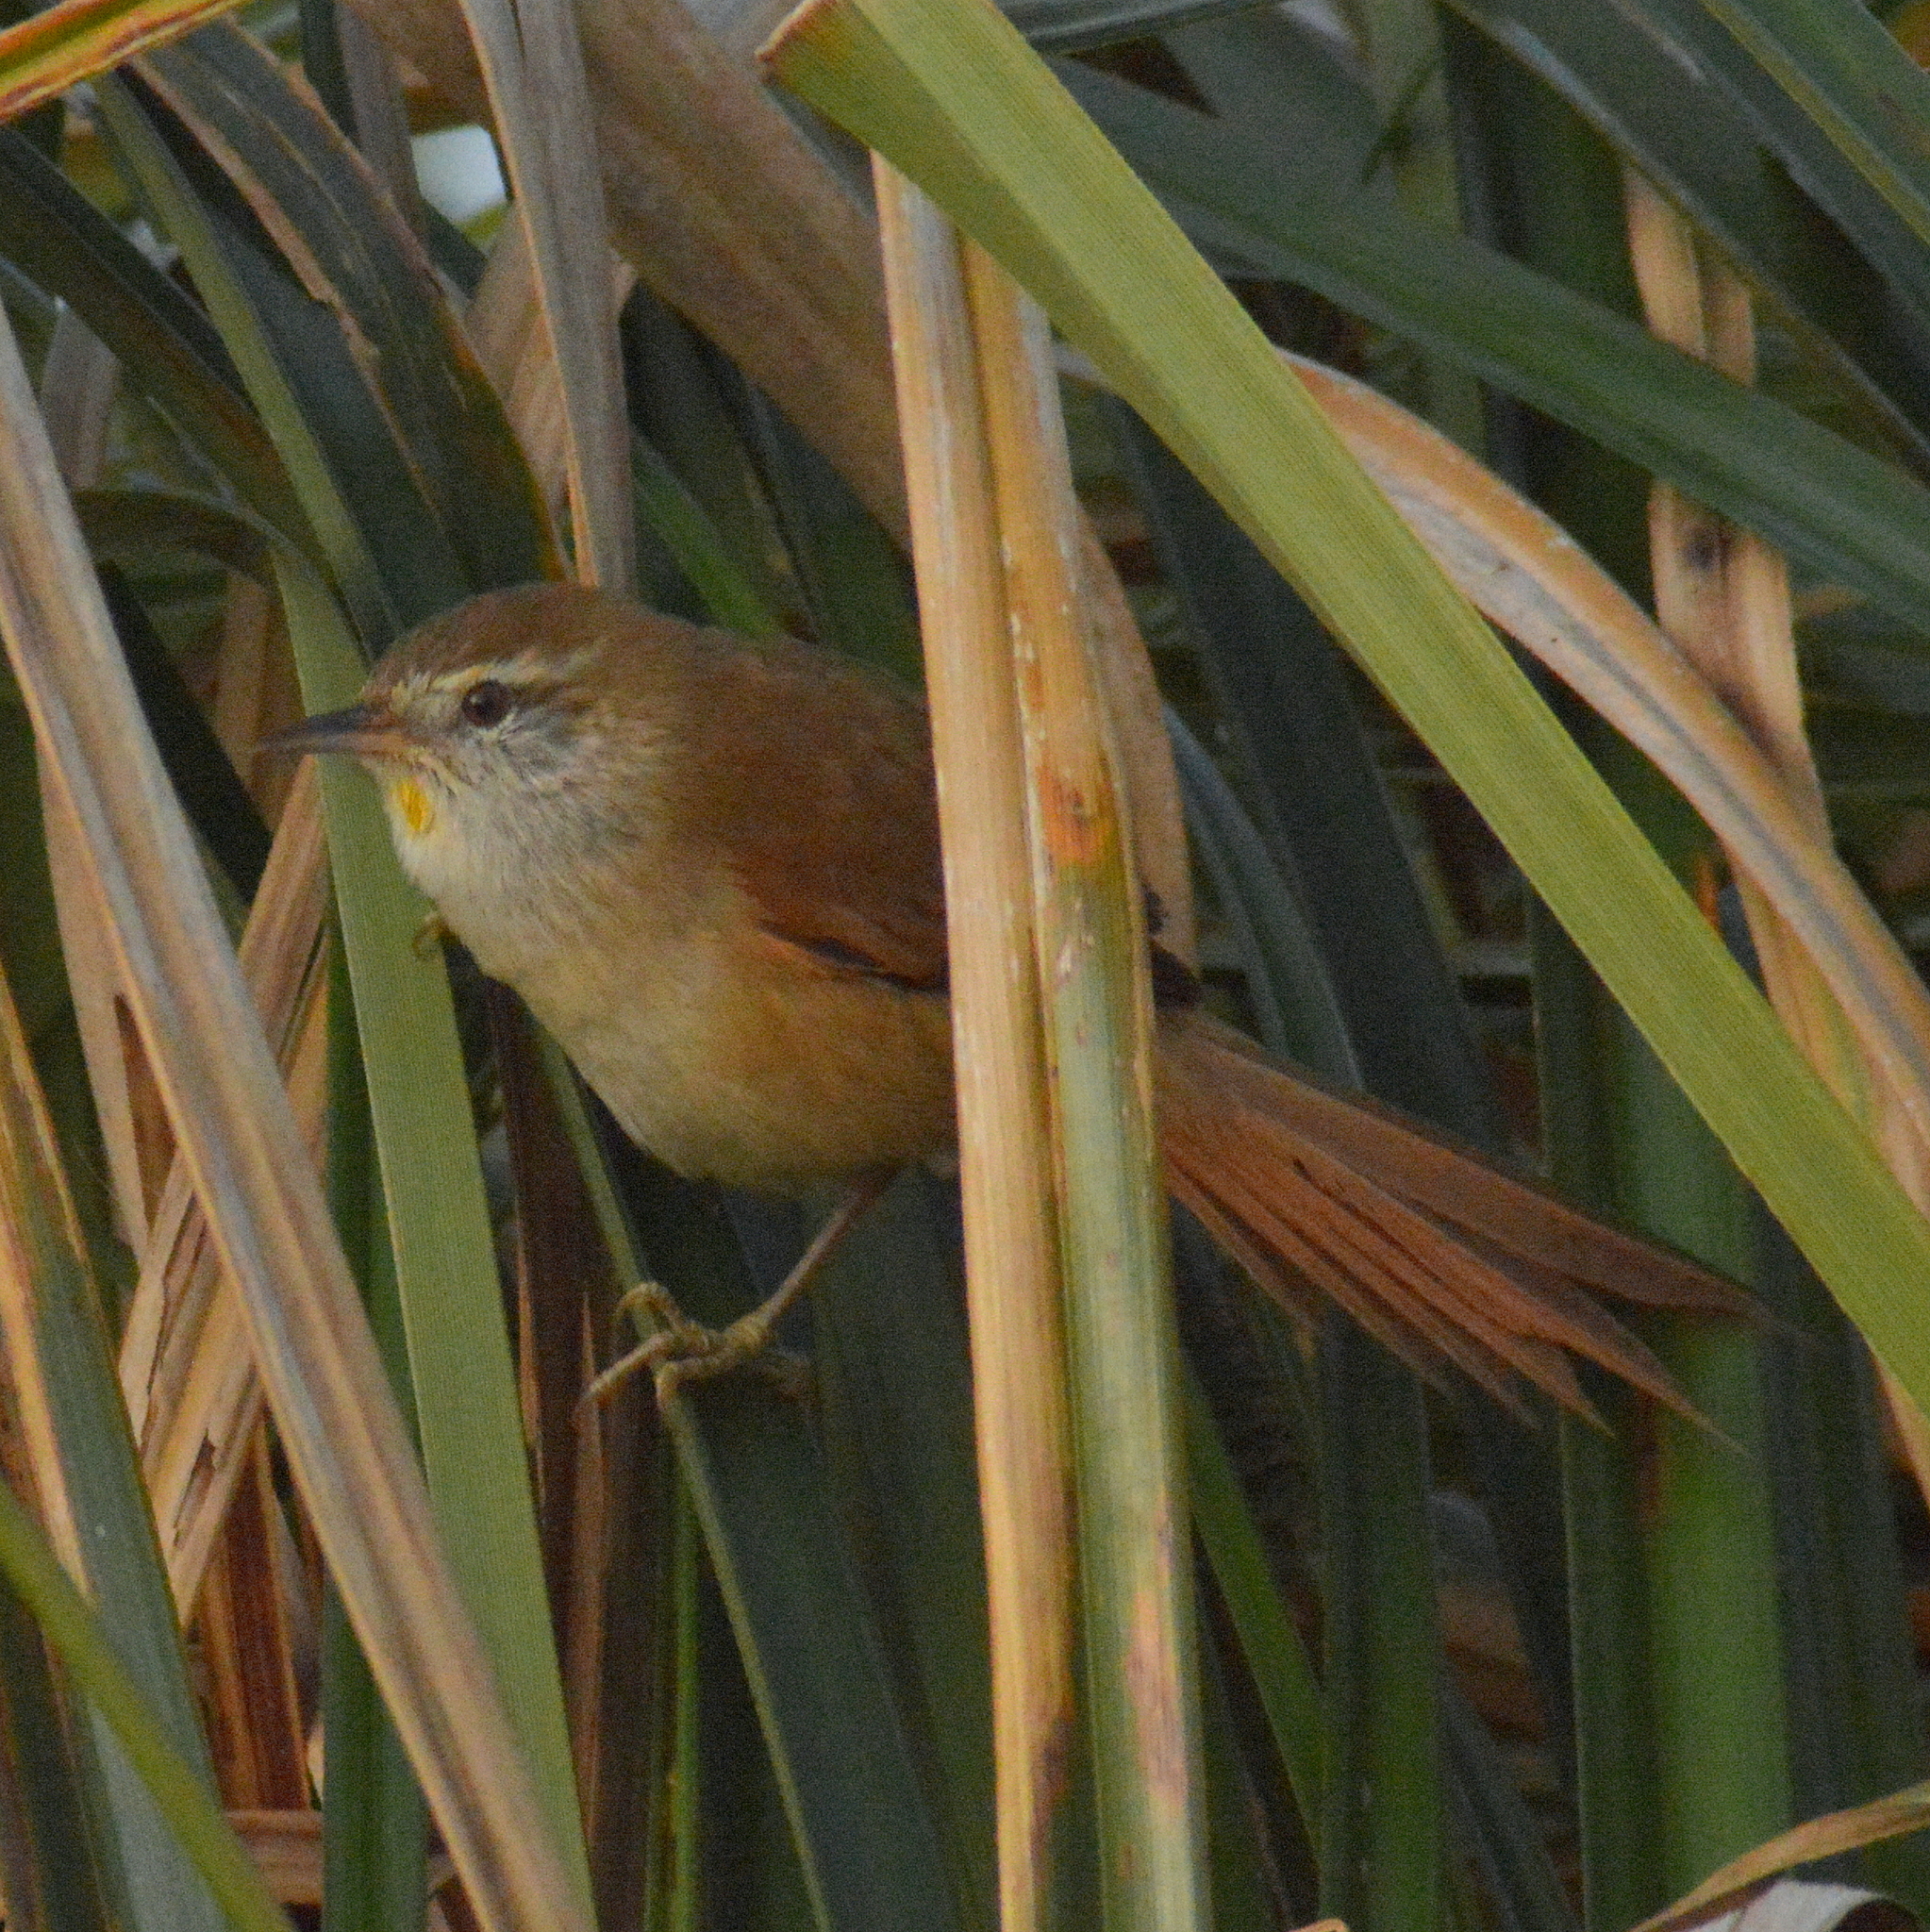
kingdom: Animalia
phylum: Chordata
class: Aves
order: Passeriformes
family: Furnariidae
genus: Cranioleuca
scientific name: Cranioleuca sulphurifera
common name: Sulphur-bearded spinetail
